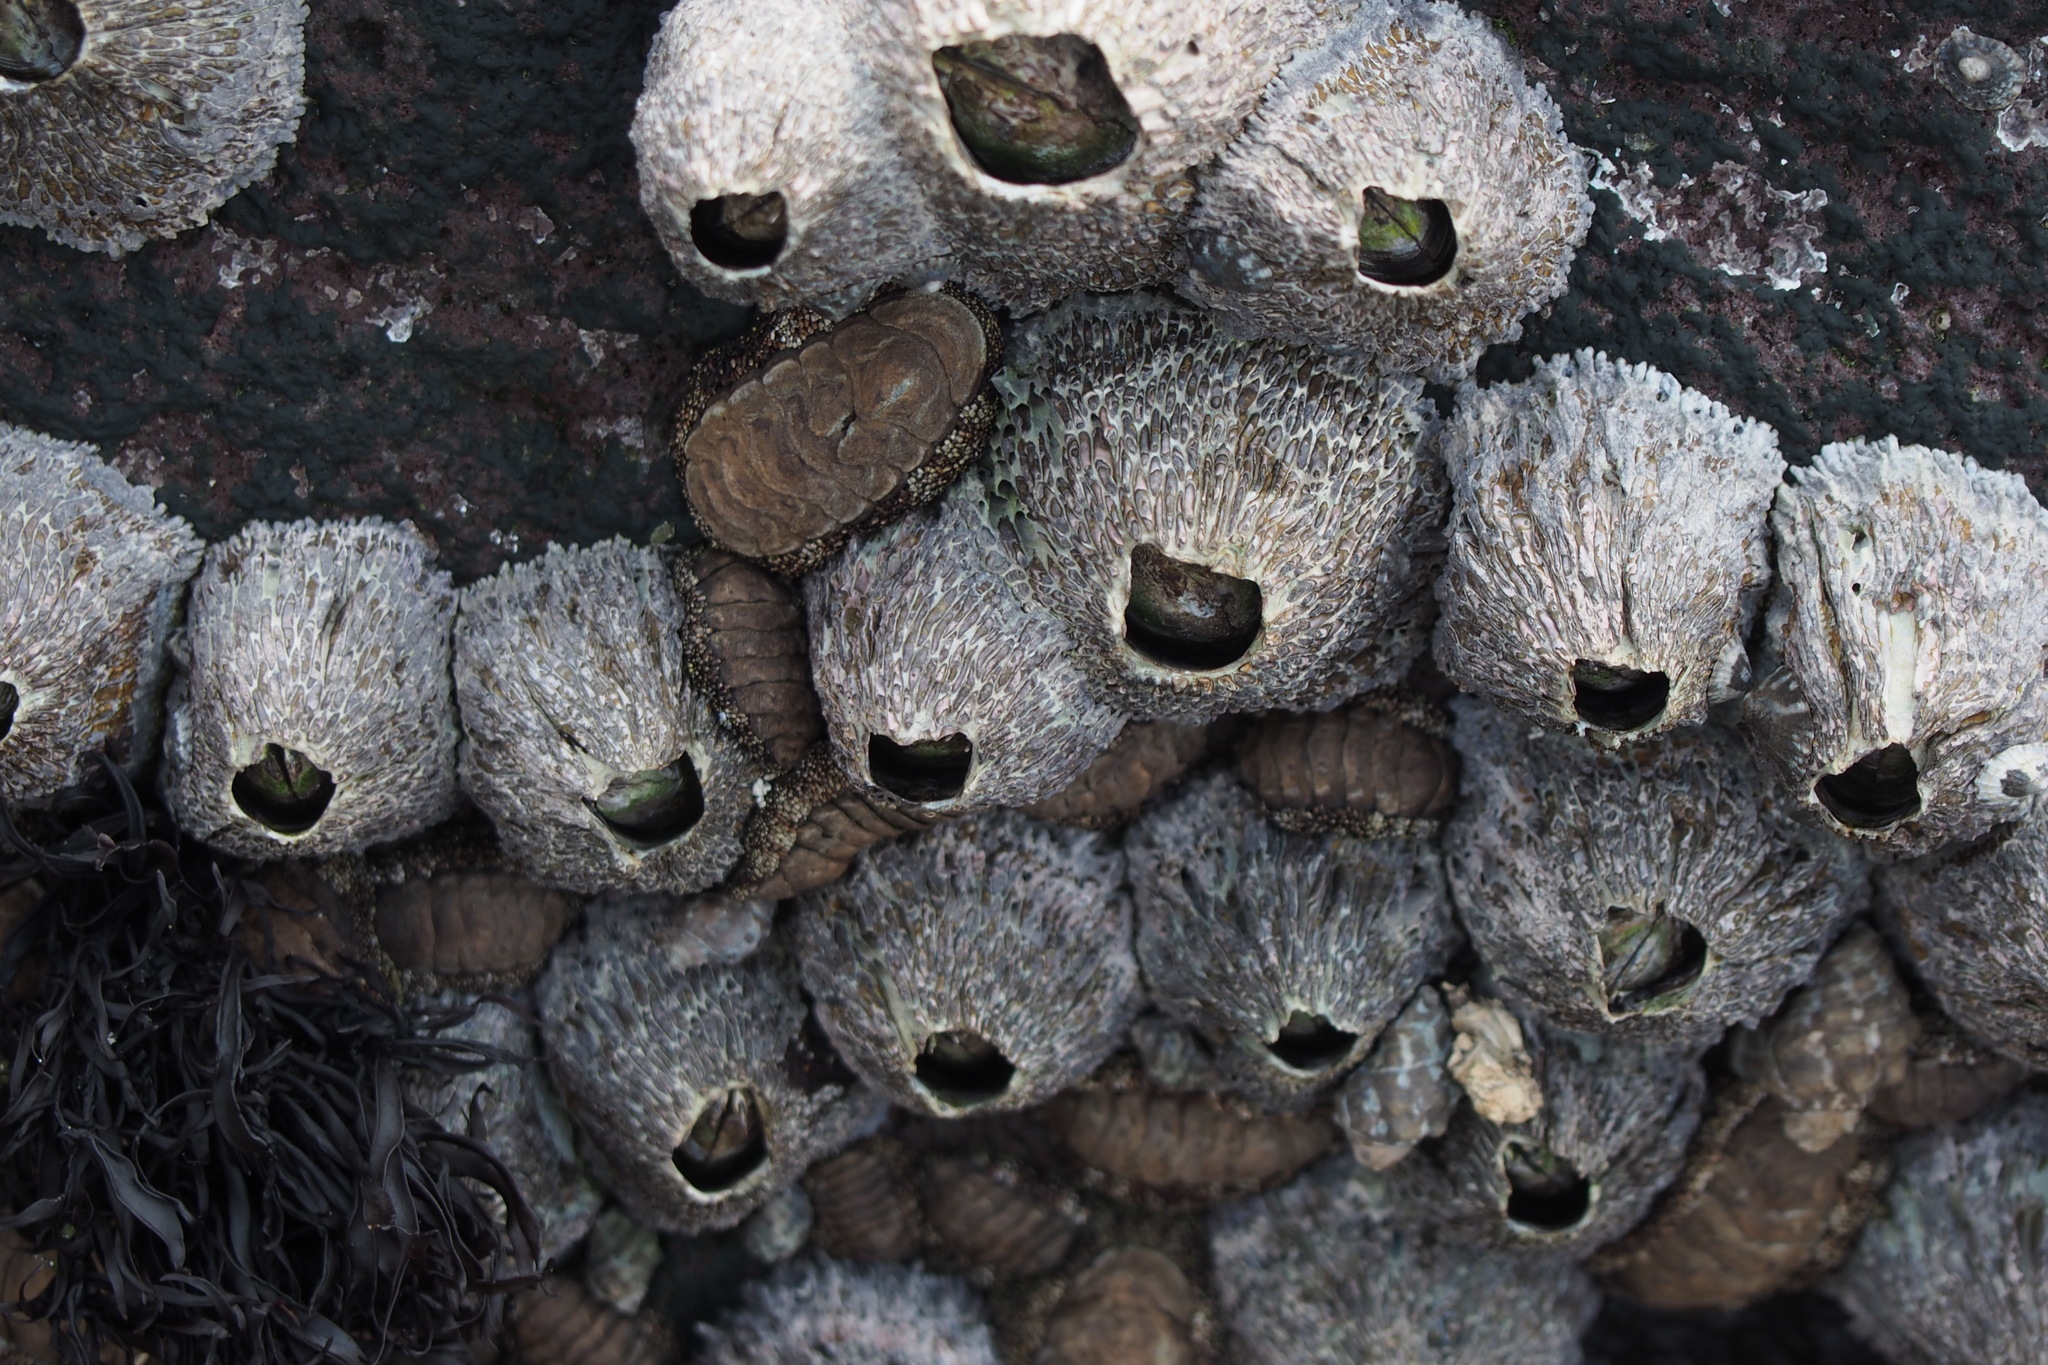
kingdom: Animalia
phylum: Arthropoda
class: Maxillopoda
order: Sessilia
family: Tetraclitidae
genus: Tetraclita
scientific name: Tetraclita japonica
